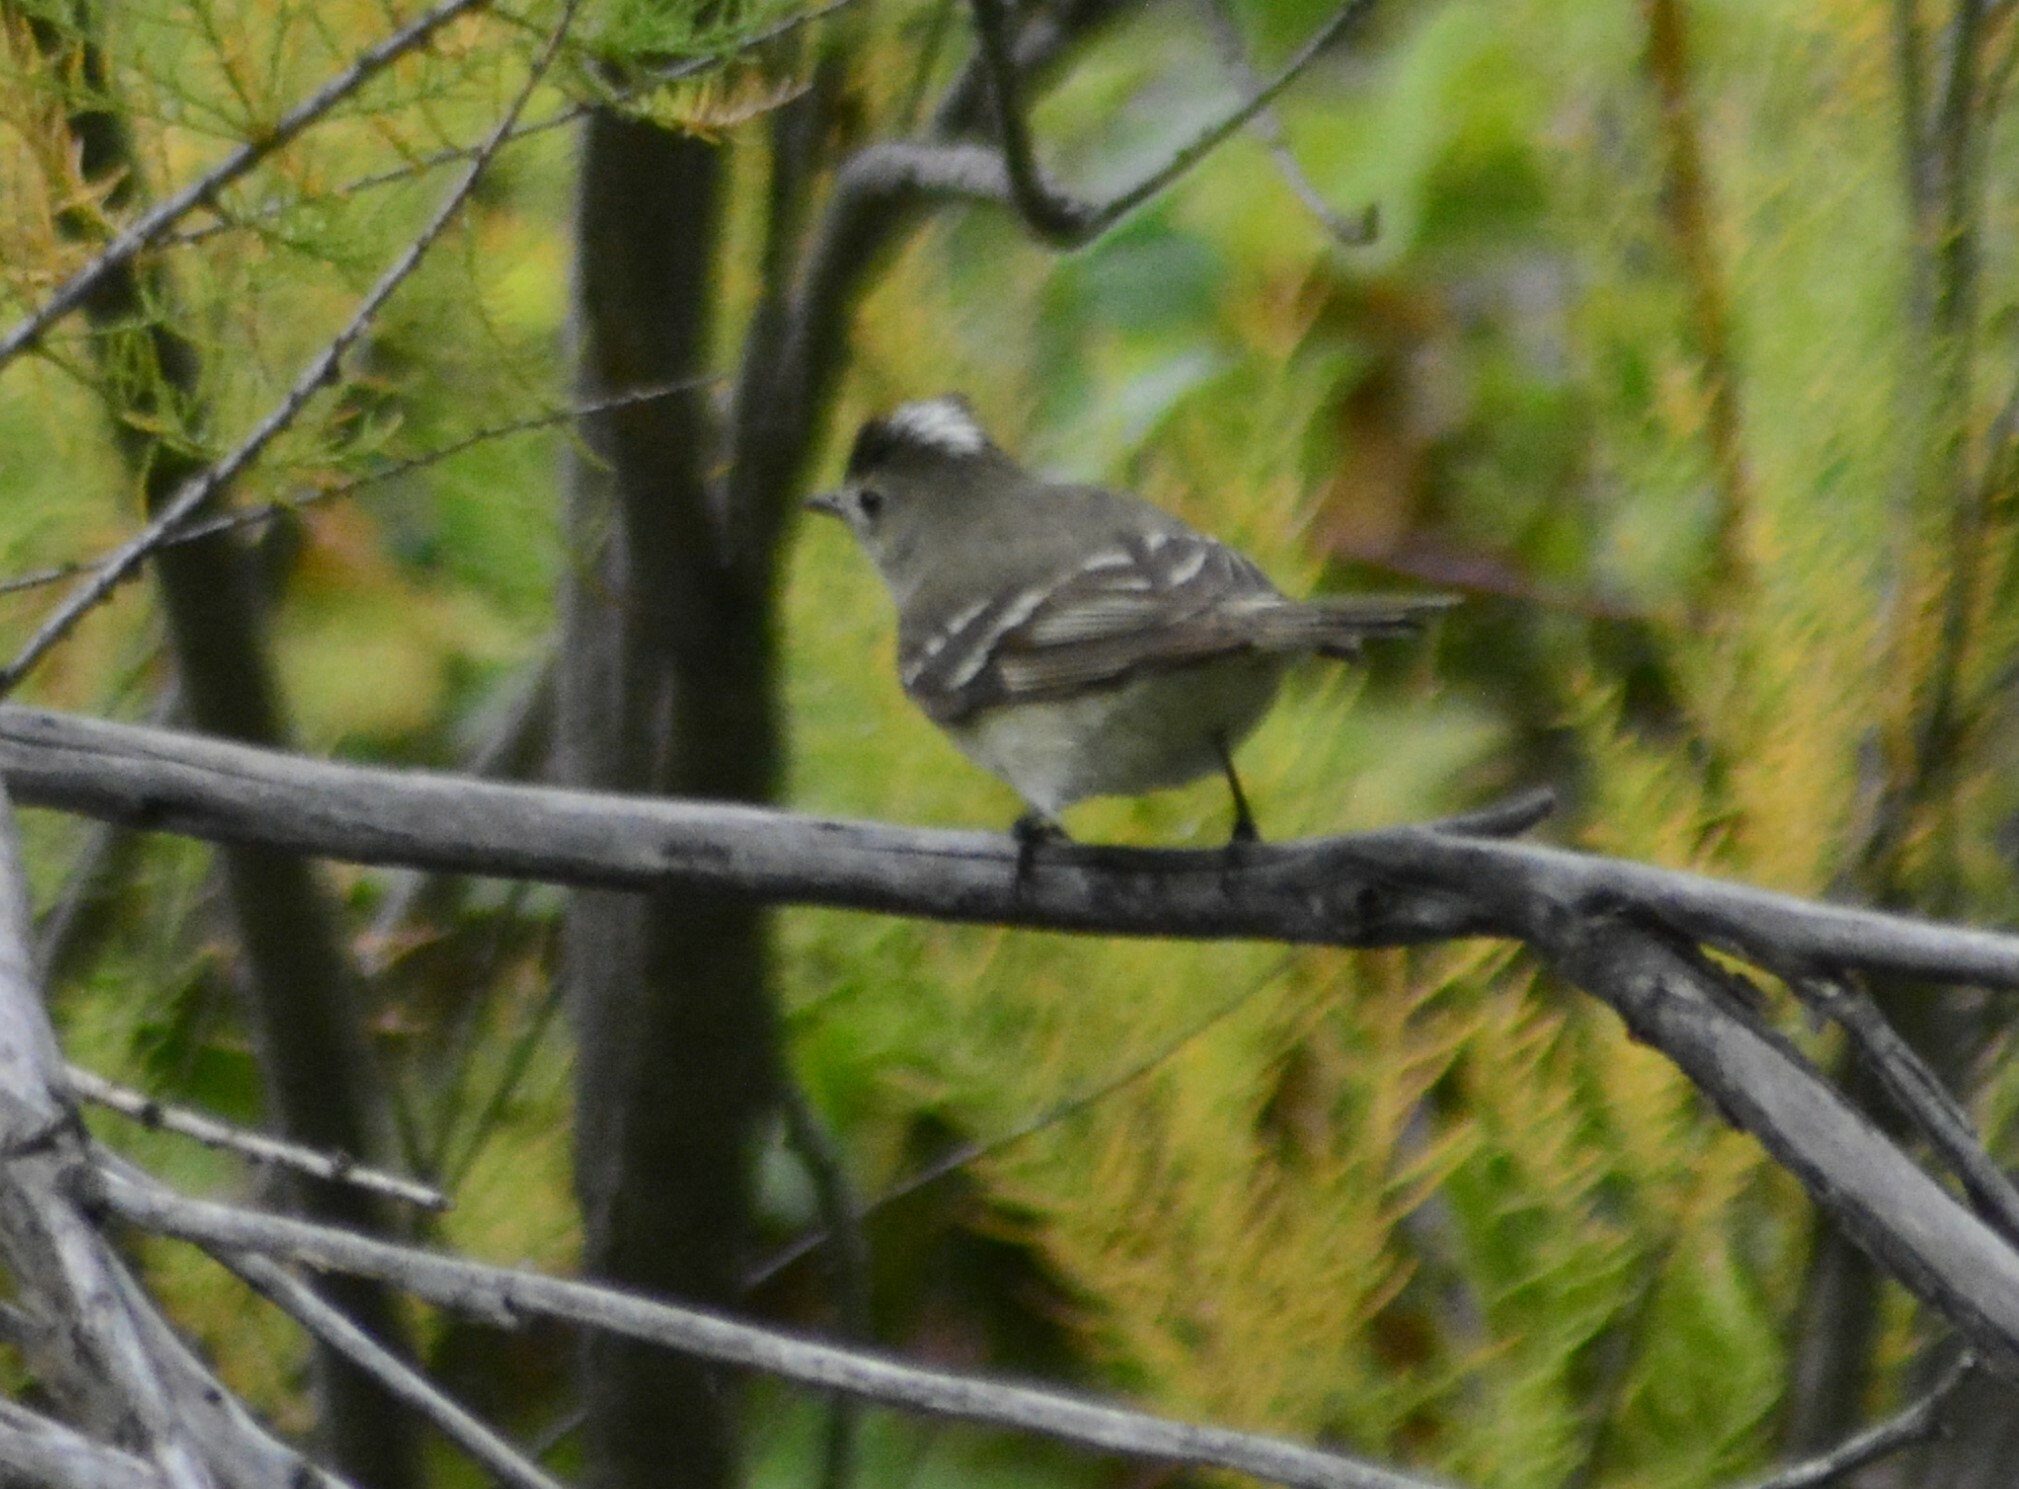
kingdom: Animalia
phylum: Chordata
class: Aves
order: Passeriformes
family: Tyrannidae
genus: Elaenia
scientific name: Elaenia albiceps
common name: White-crested elaenia
